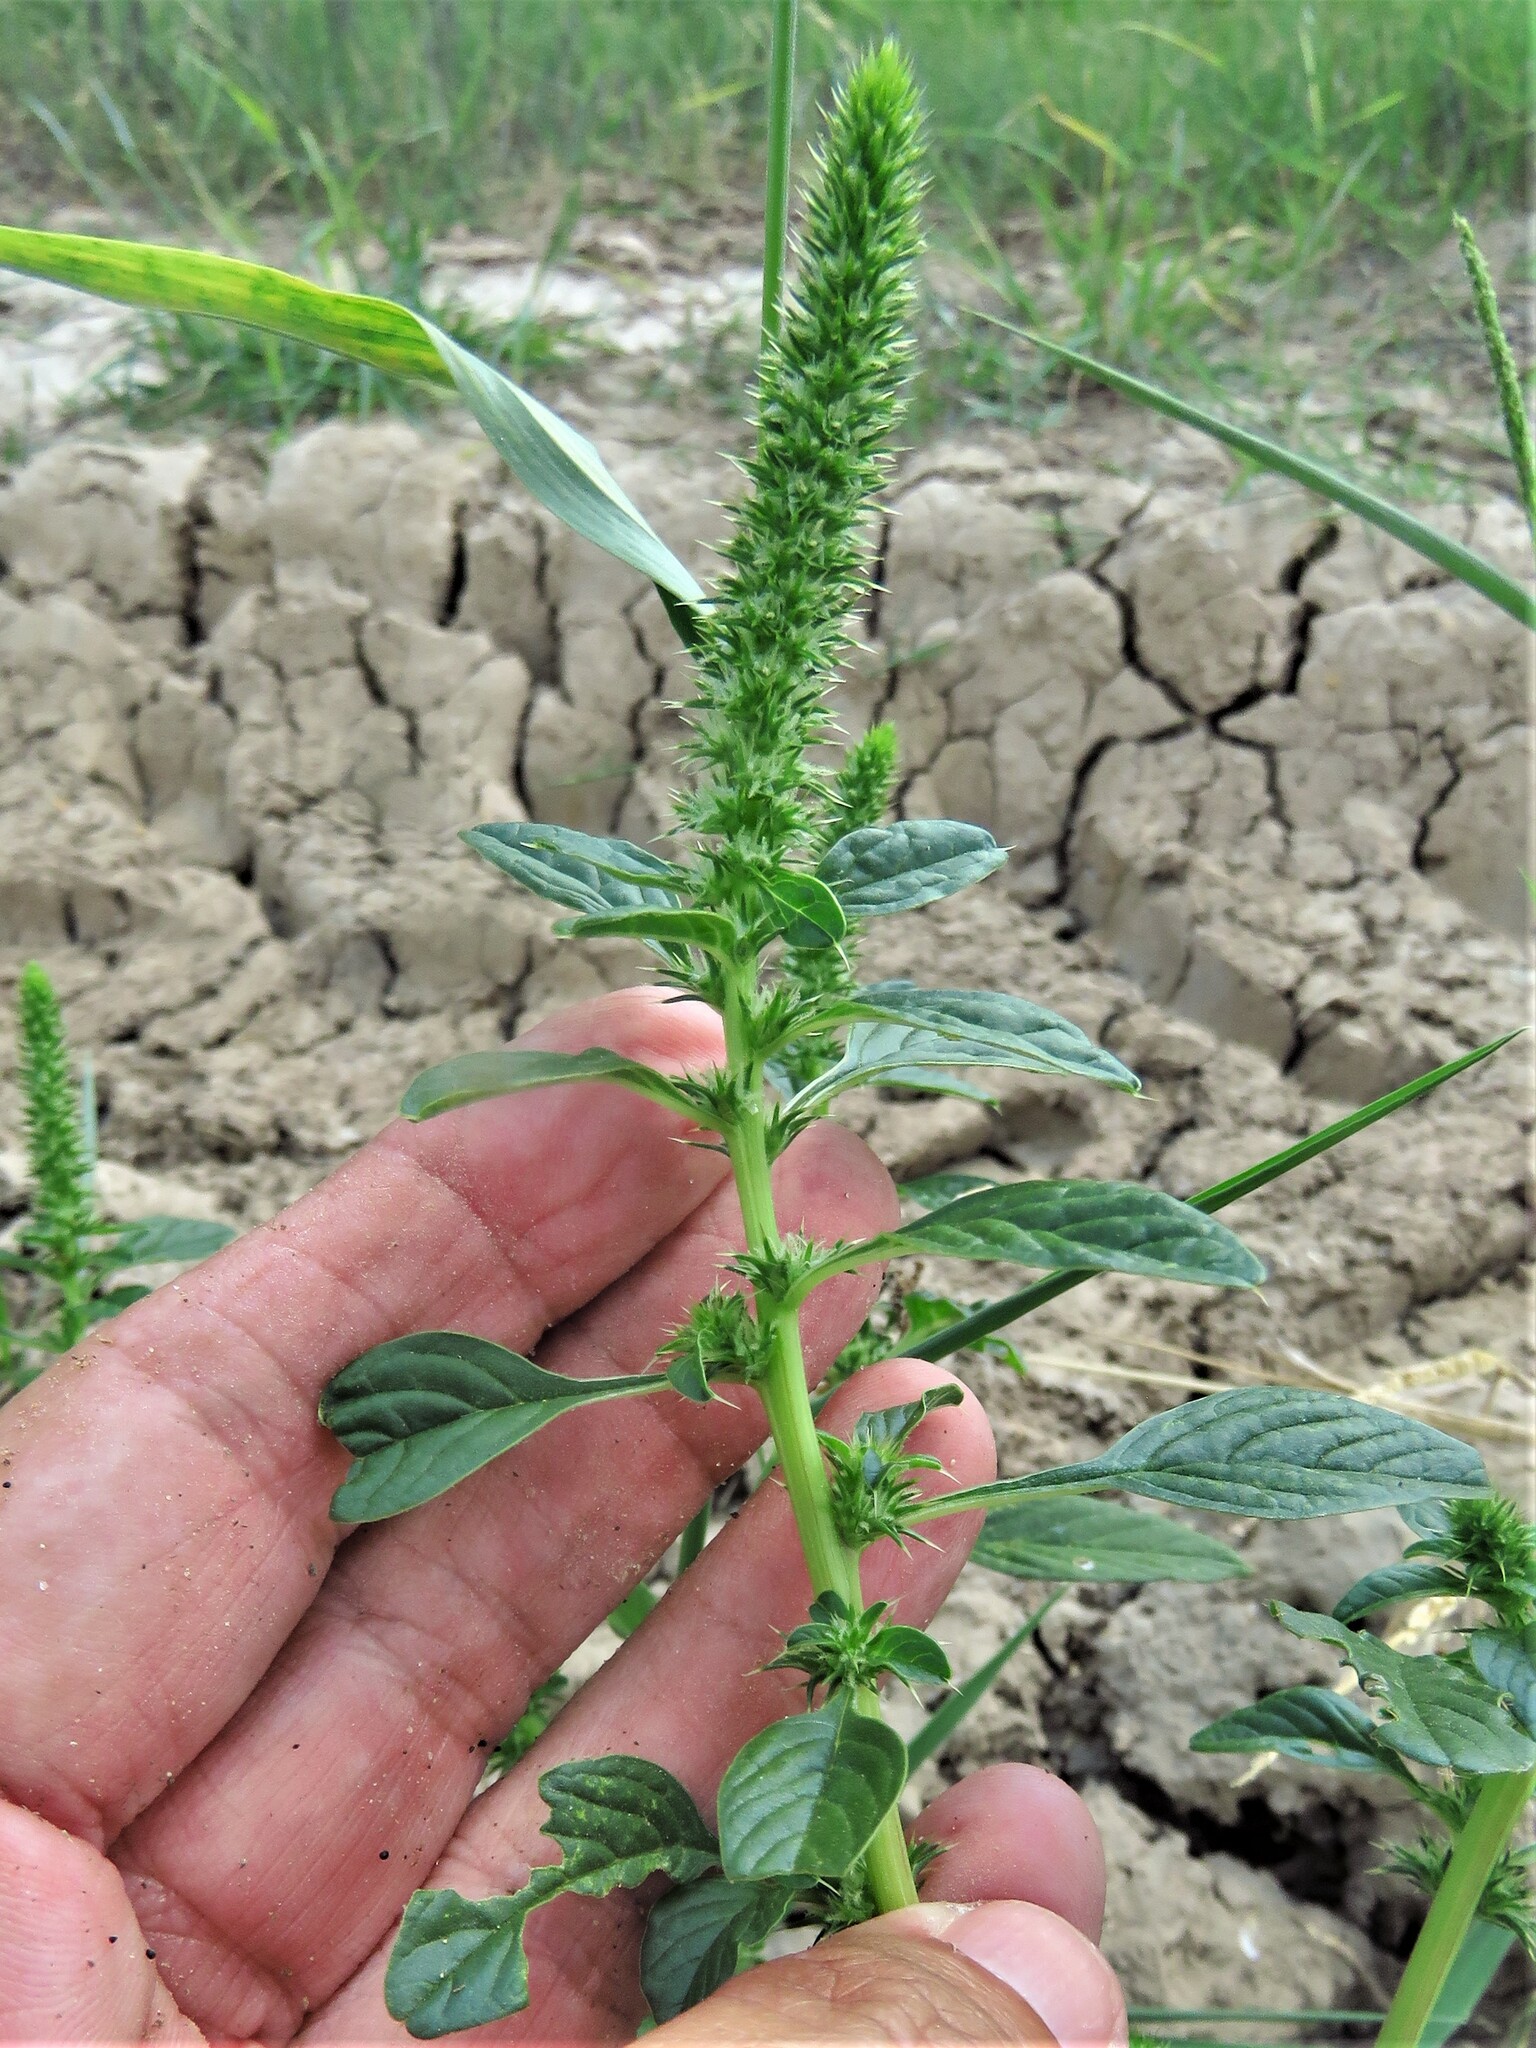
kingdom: Plantae
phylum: Tracheophyta
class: Magnoliopsida
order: Caryophyllales
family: Amaranthaceae
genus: Amaranthus
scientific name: Amaranthus palmeri
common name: Dioecious amaranth
